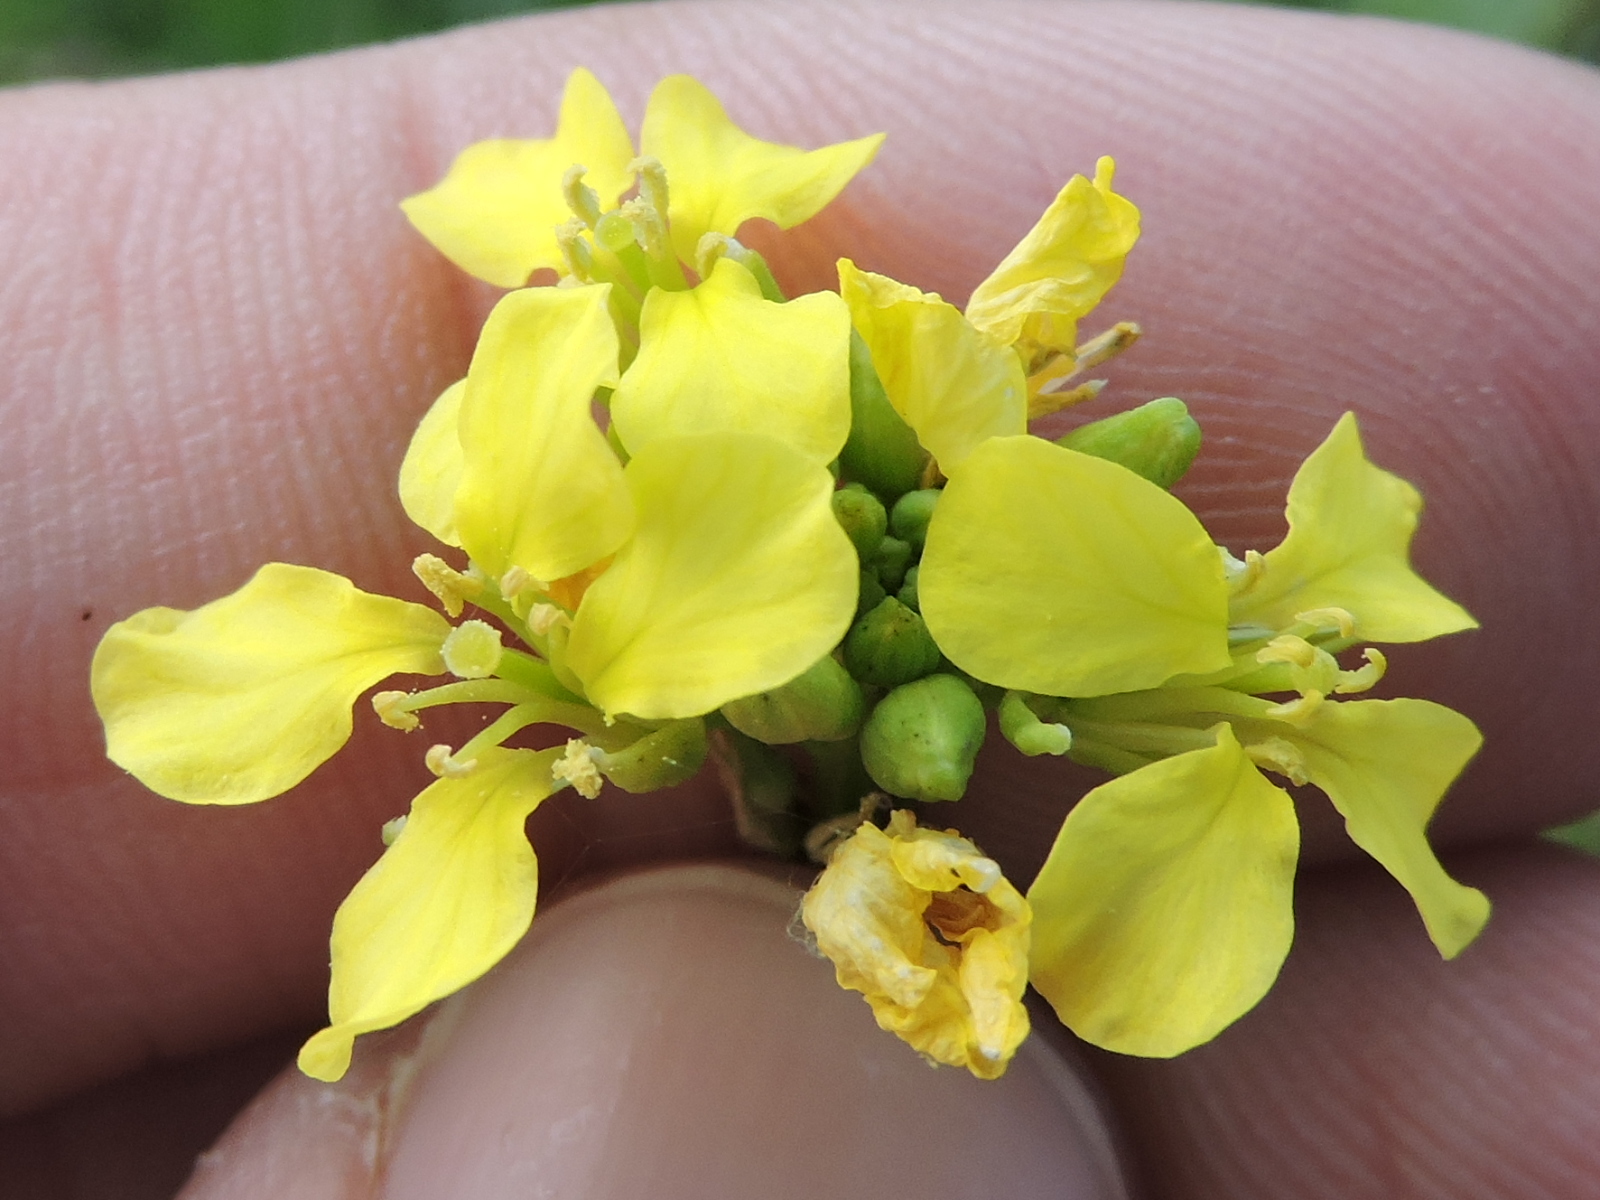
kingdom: Plantae
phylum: Tracheophyta
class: Magnoliopsida
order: Brassicales
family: Brassicaceae
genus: Rapistrum
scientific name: Rapistrum rugosum
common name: Annual bastardcabbage
